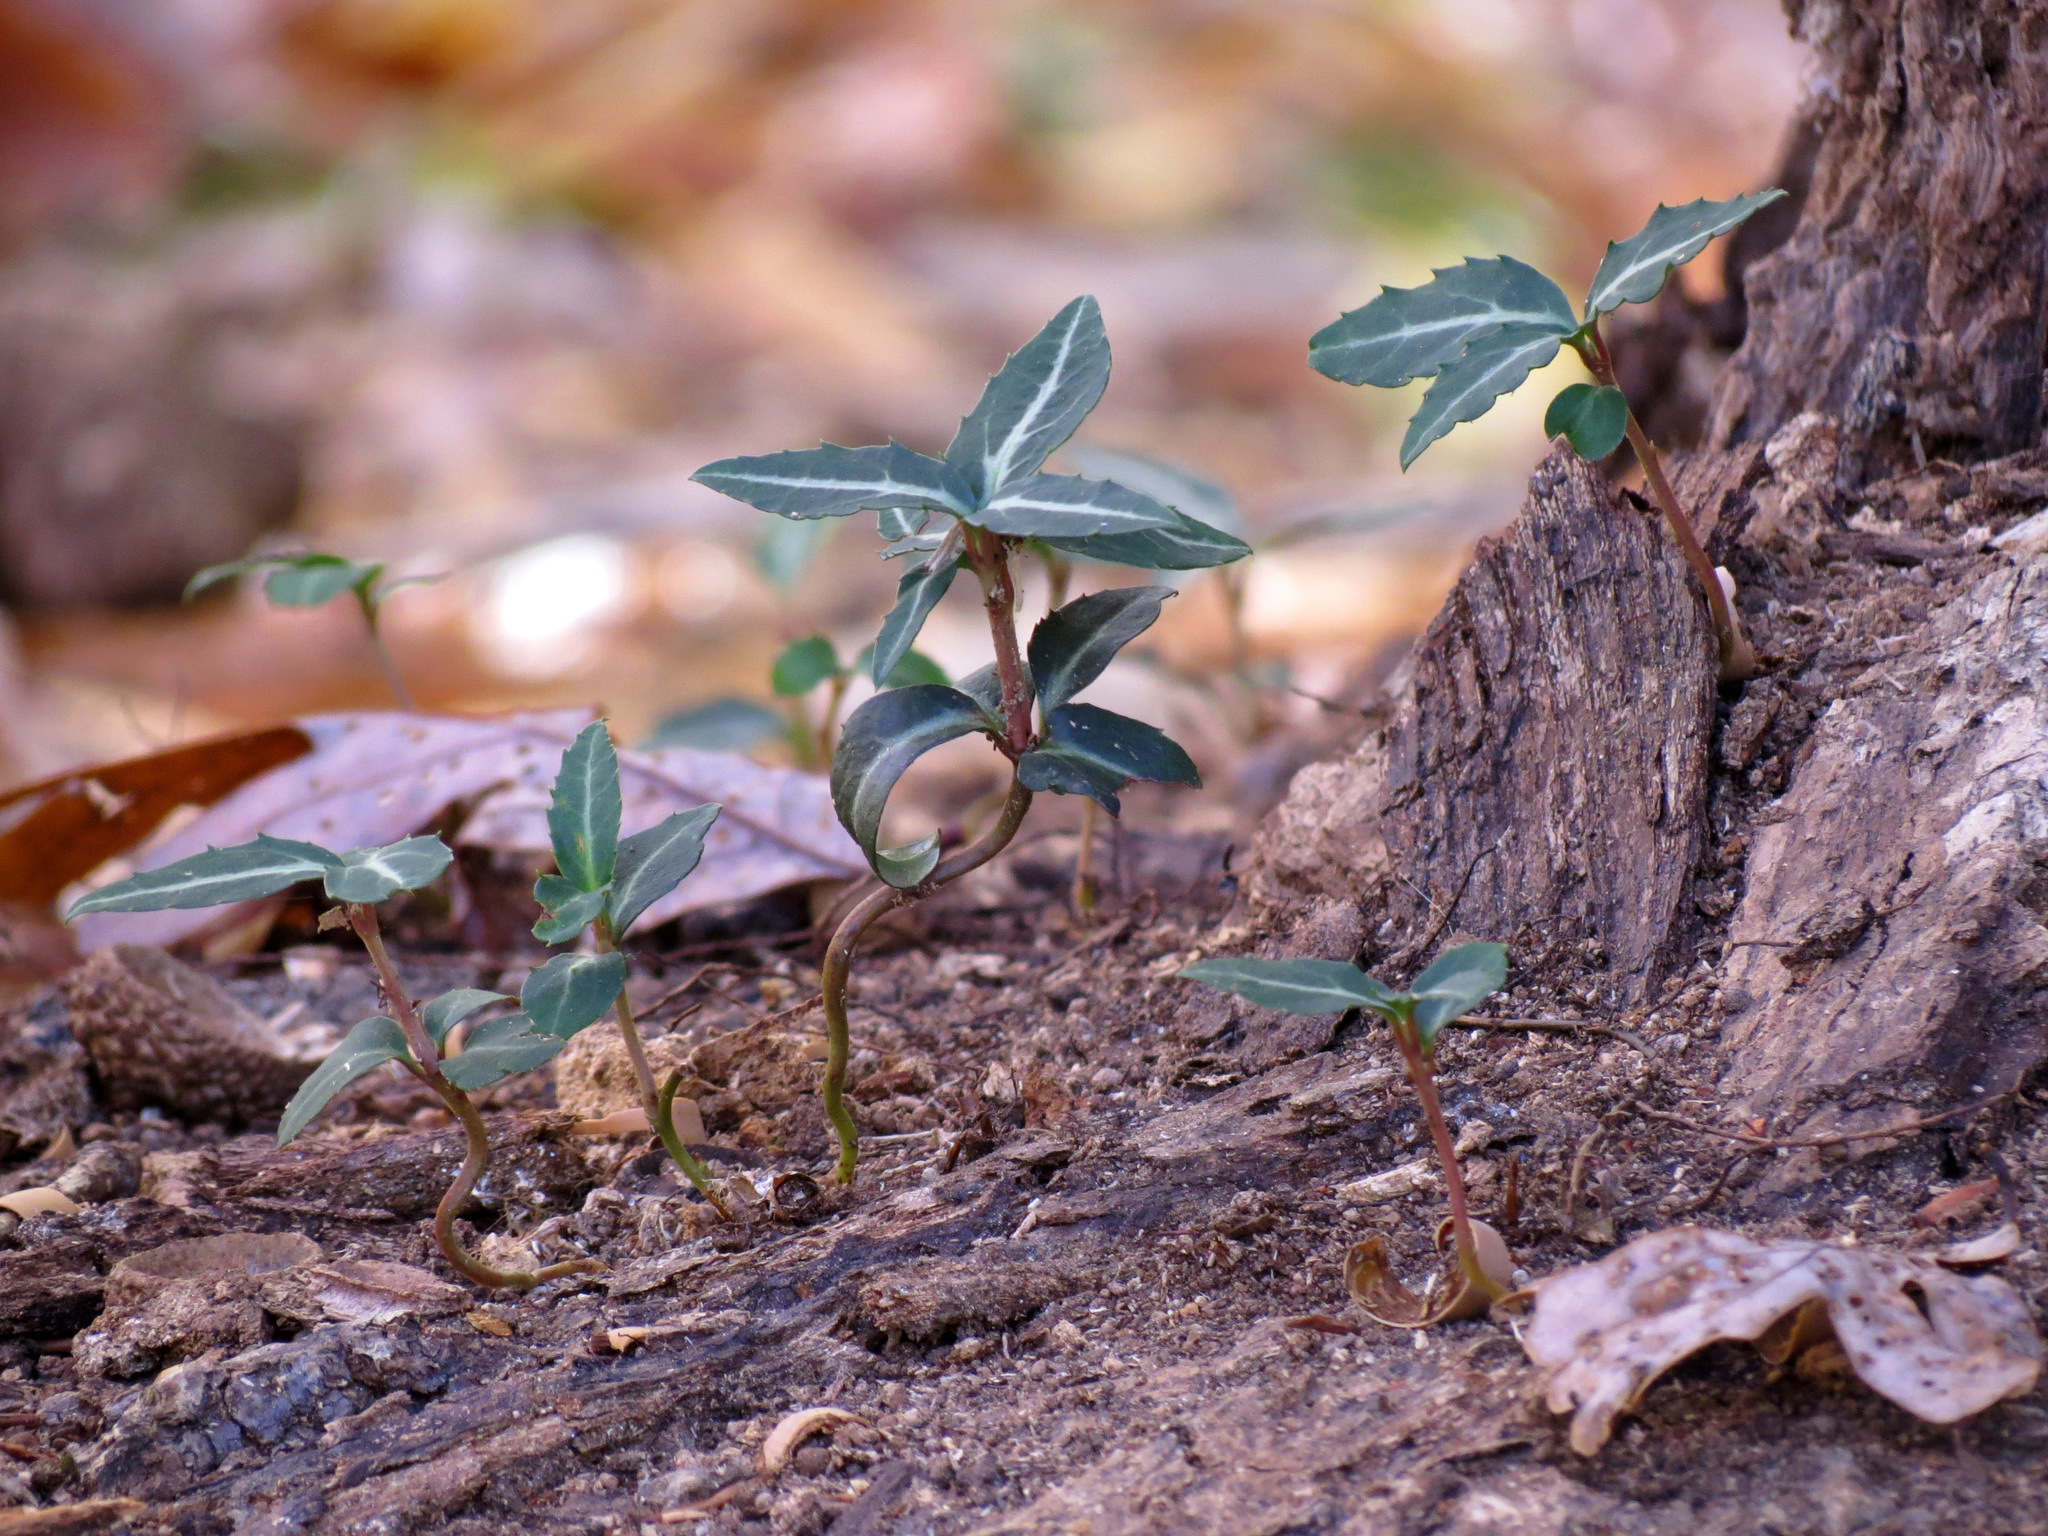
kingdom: Plantae
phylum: Tracheophyta
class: Magnoliopsida
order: Ericales
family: Ericaceae
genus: Chimaphila
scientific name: Chimaphila maculata
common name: Spotted pipsissewa
